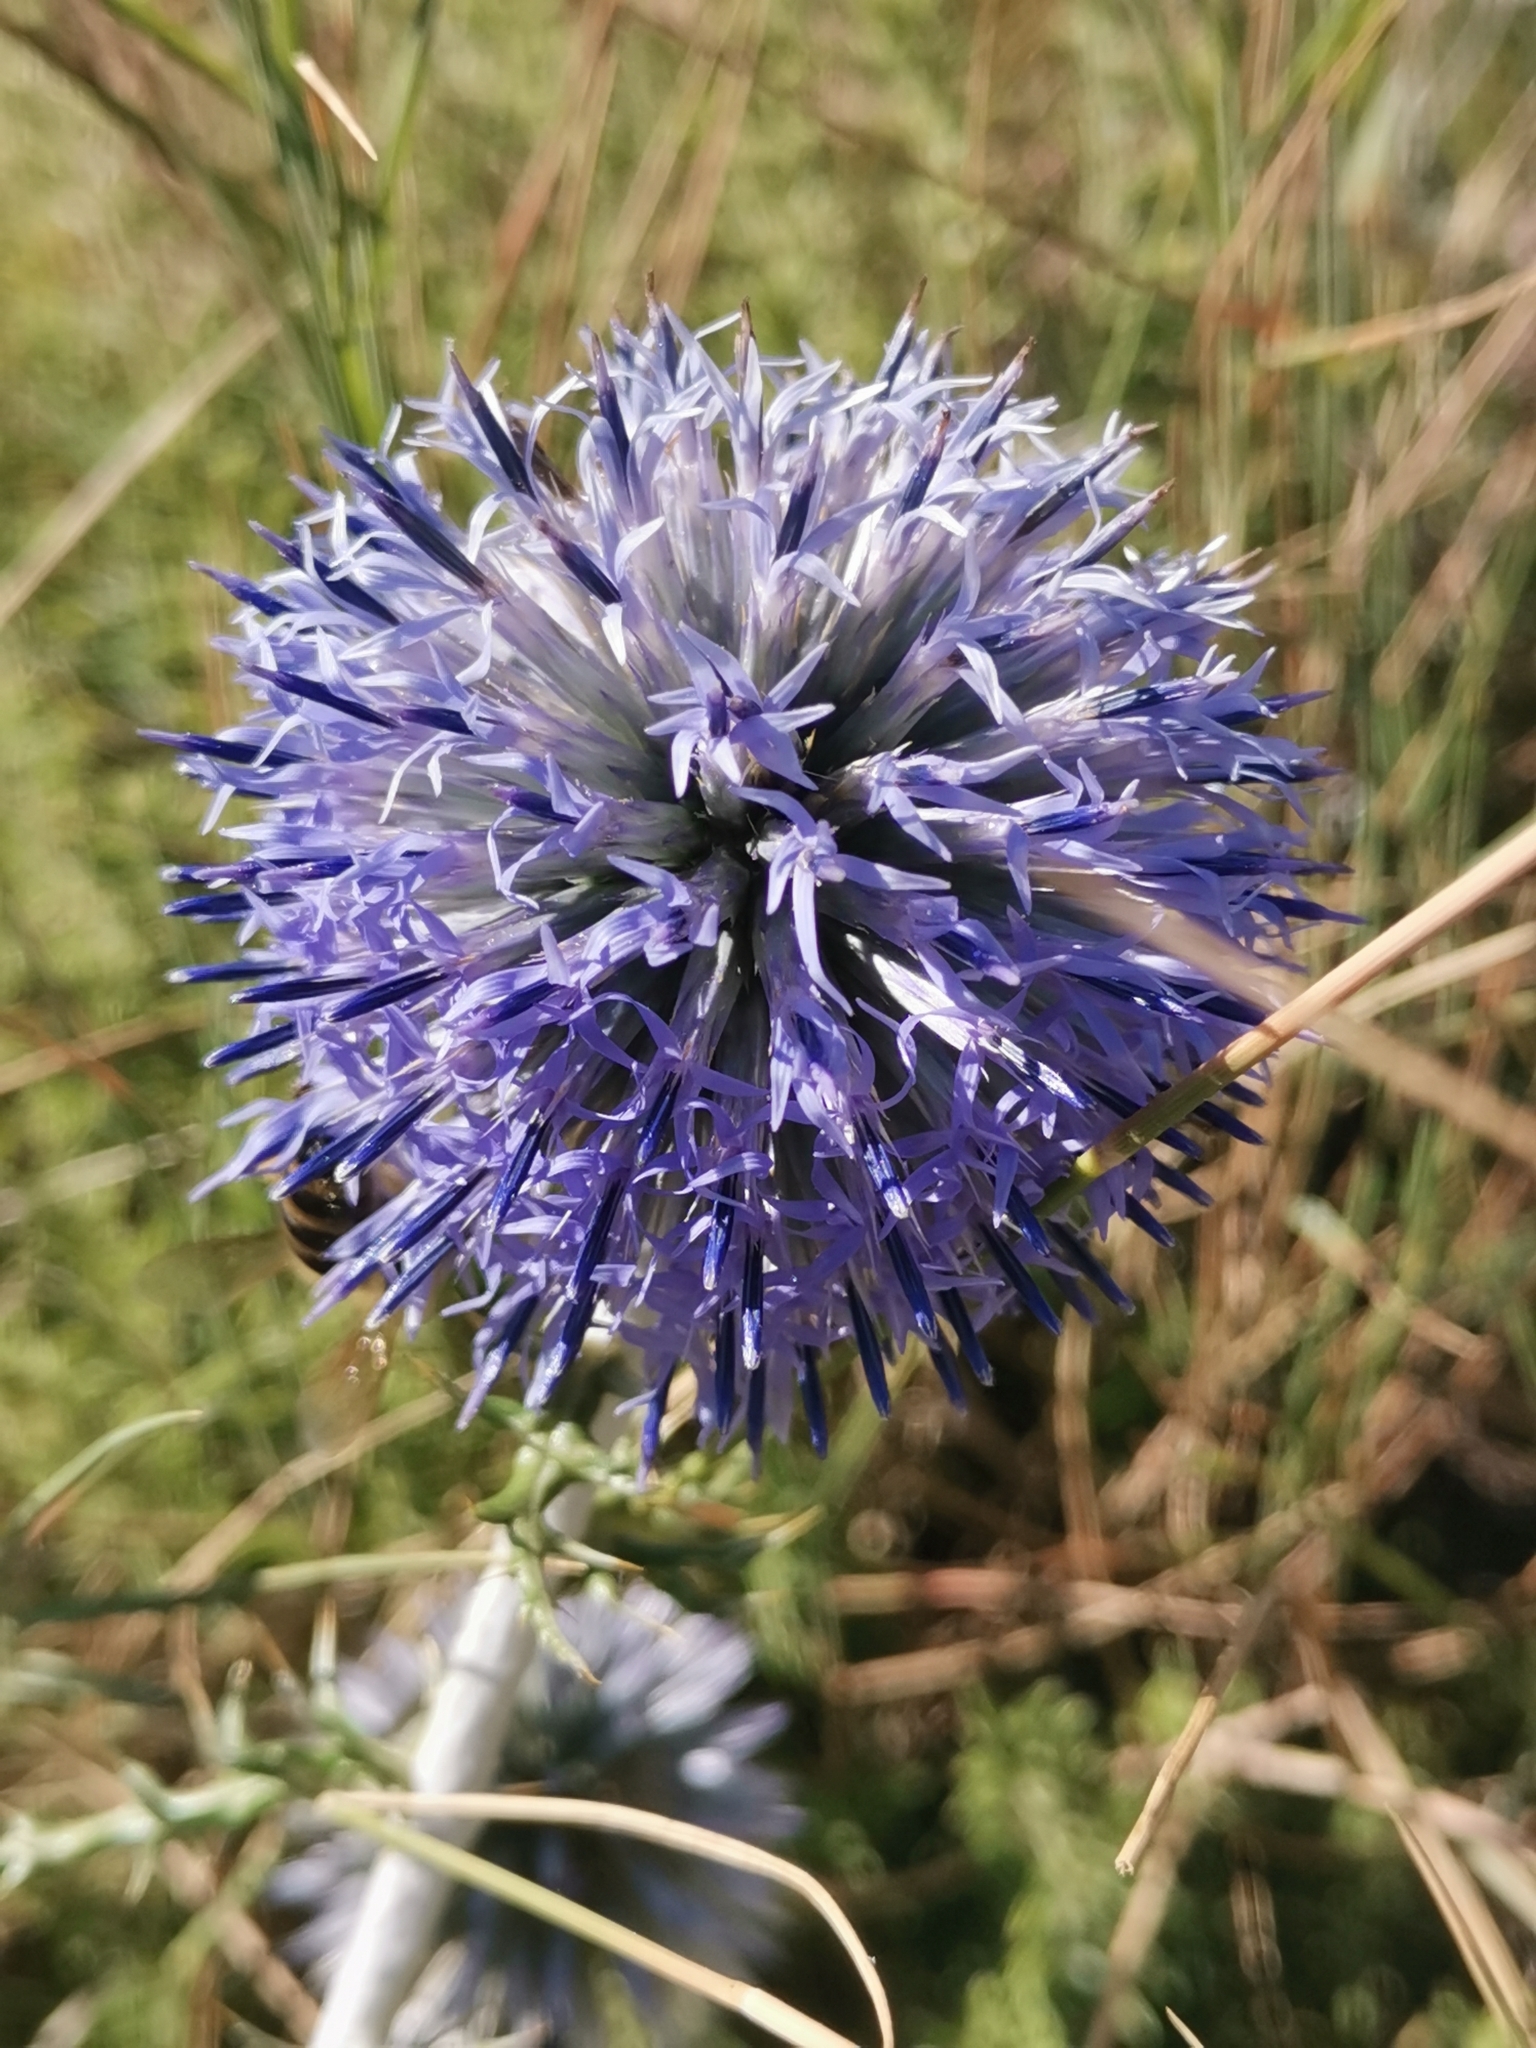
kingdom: Plantae
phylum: Tracheophyta
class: Magnoliopsida
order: Asterales
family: Asteraceae
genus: Echinops
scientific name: Echinops ritro
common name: Globe thistle
